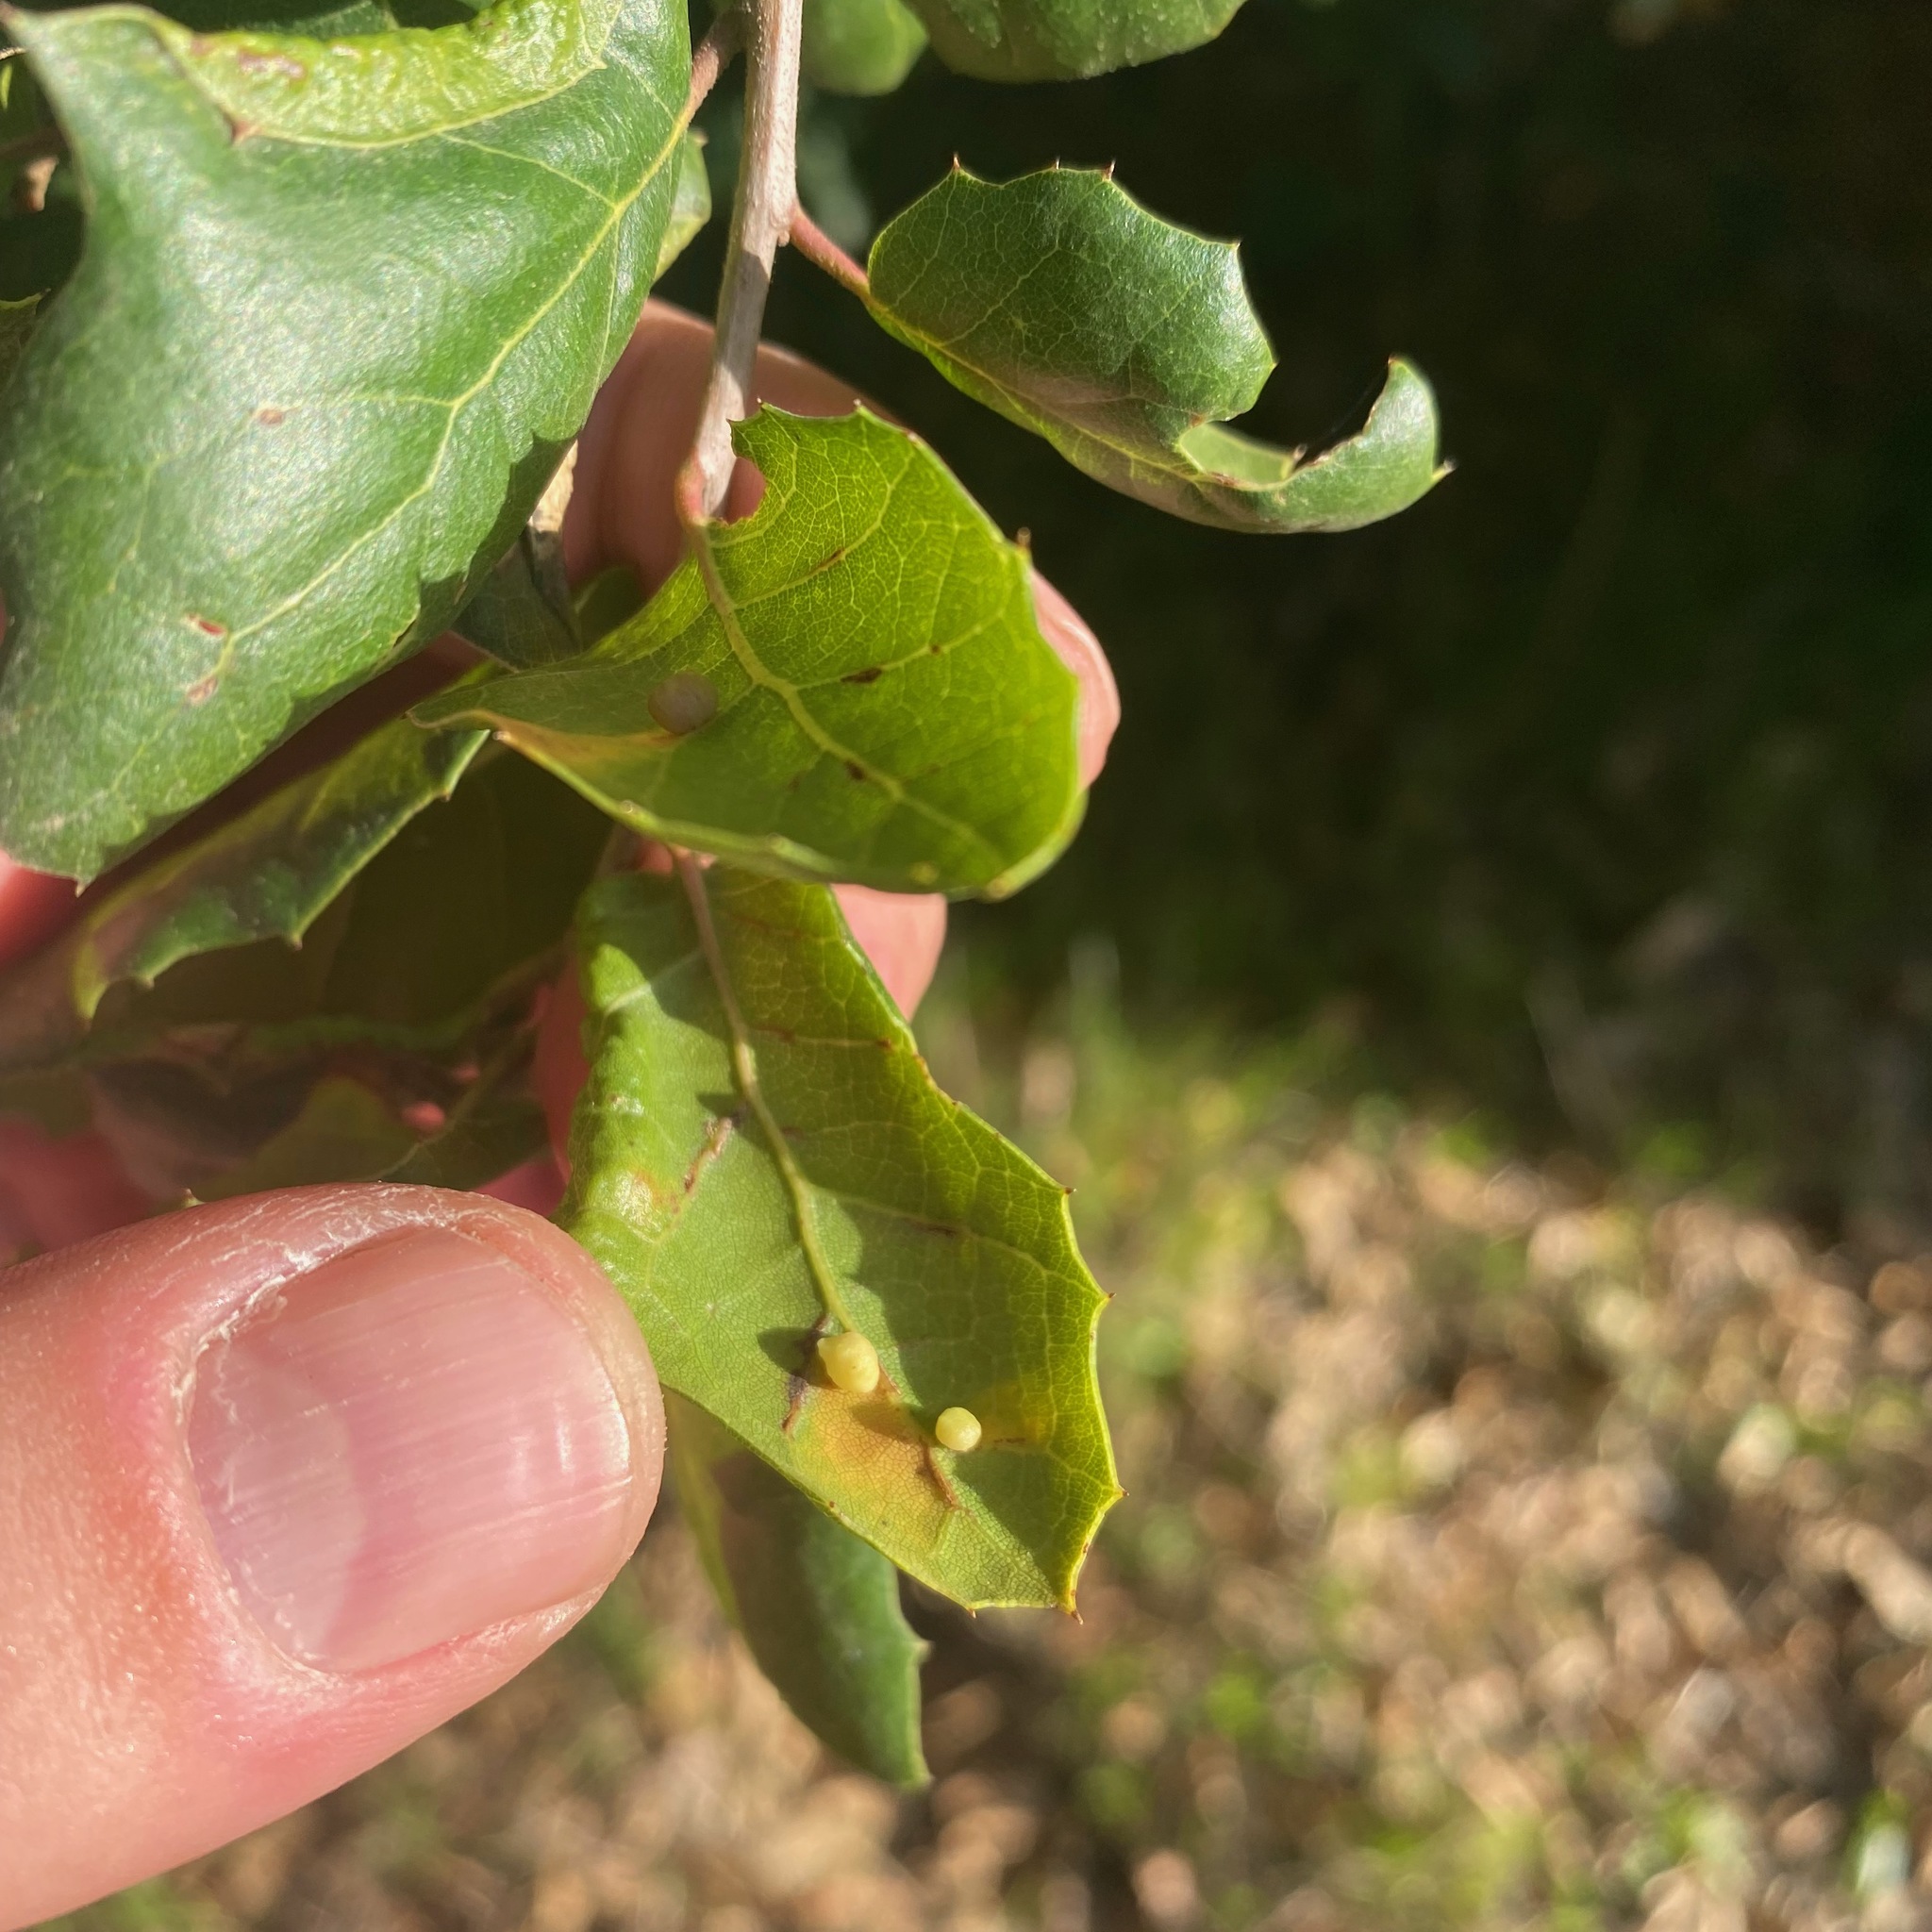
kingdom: Animalia
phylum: Arthropoda
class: Insecta
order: Hymenoptera
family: Cynipidae
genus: Dryocosmus
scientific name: Dryocosmus
